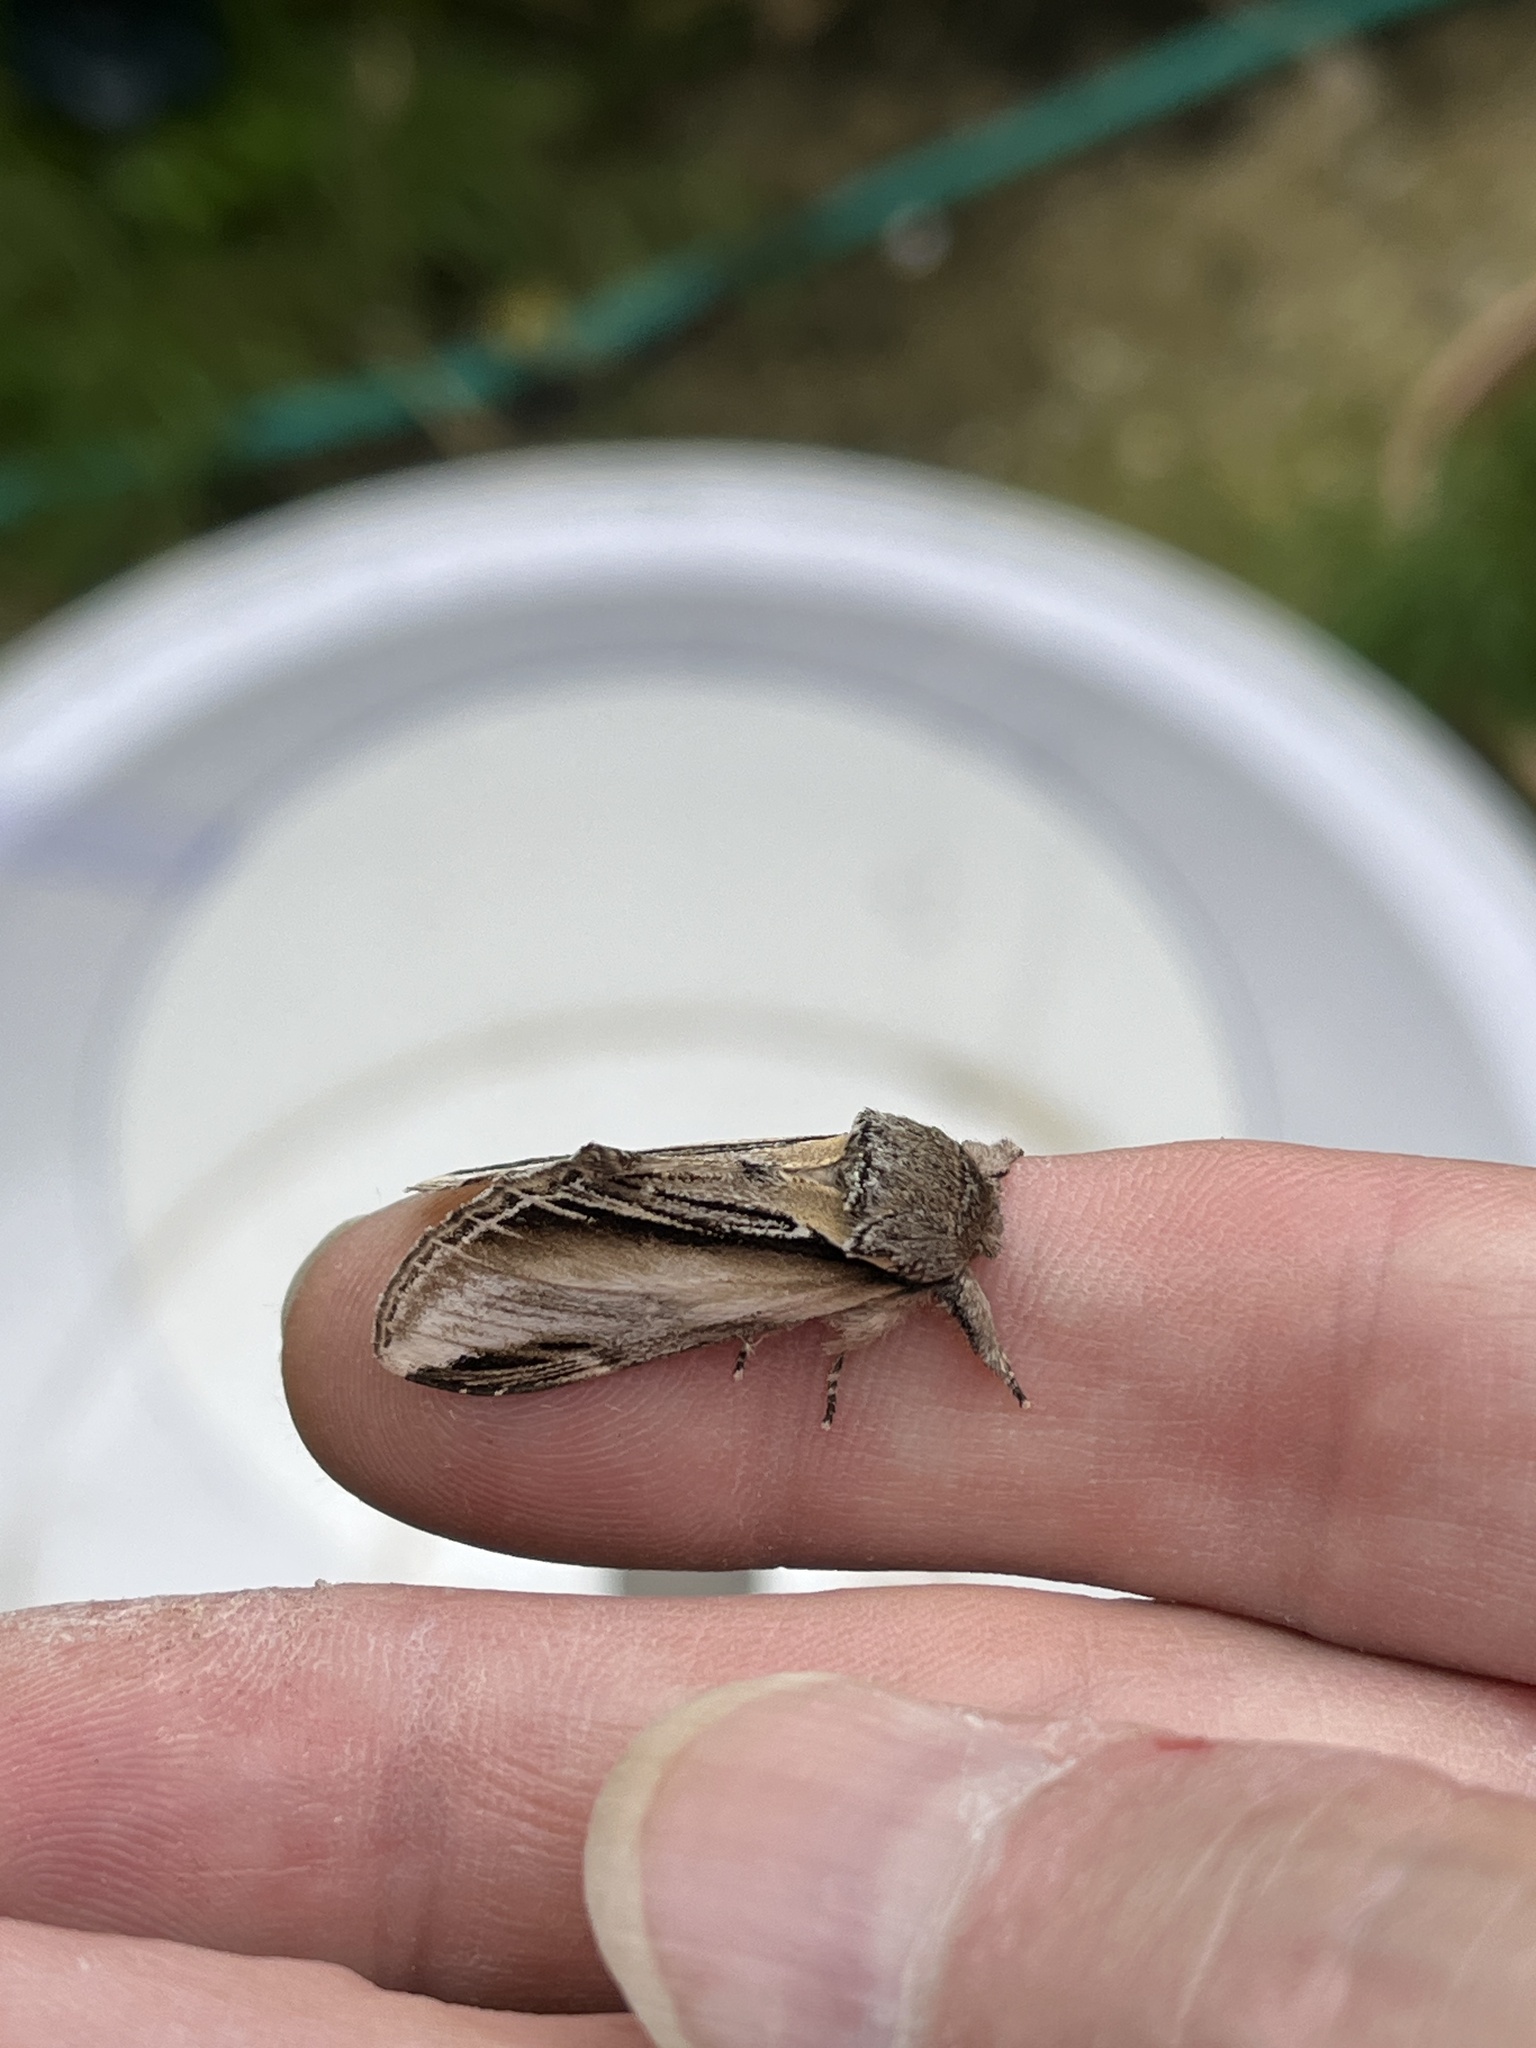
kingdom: Animalia
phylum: Arthropoda
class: Insecta
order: Lepidoptera
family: Notodontidae
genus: Pheosia
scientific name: Pheosia tremula
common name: Swallow prominent
